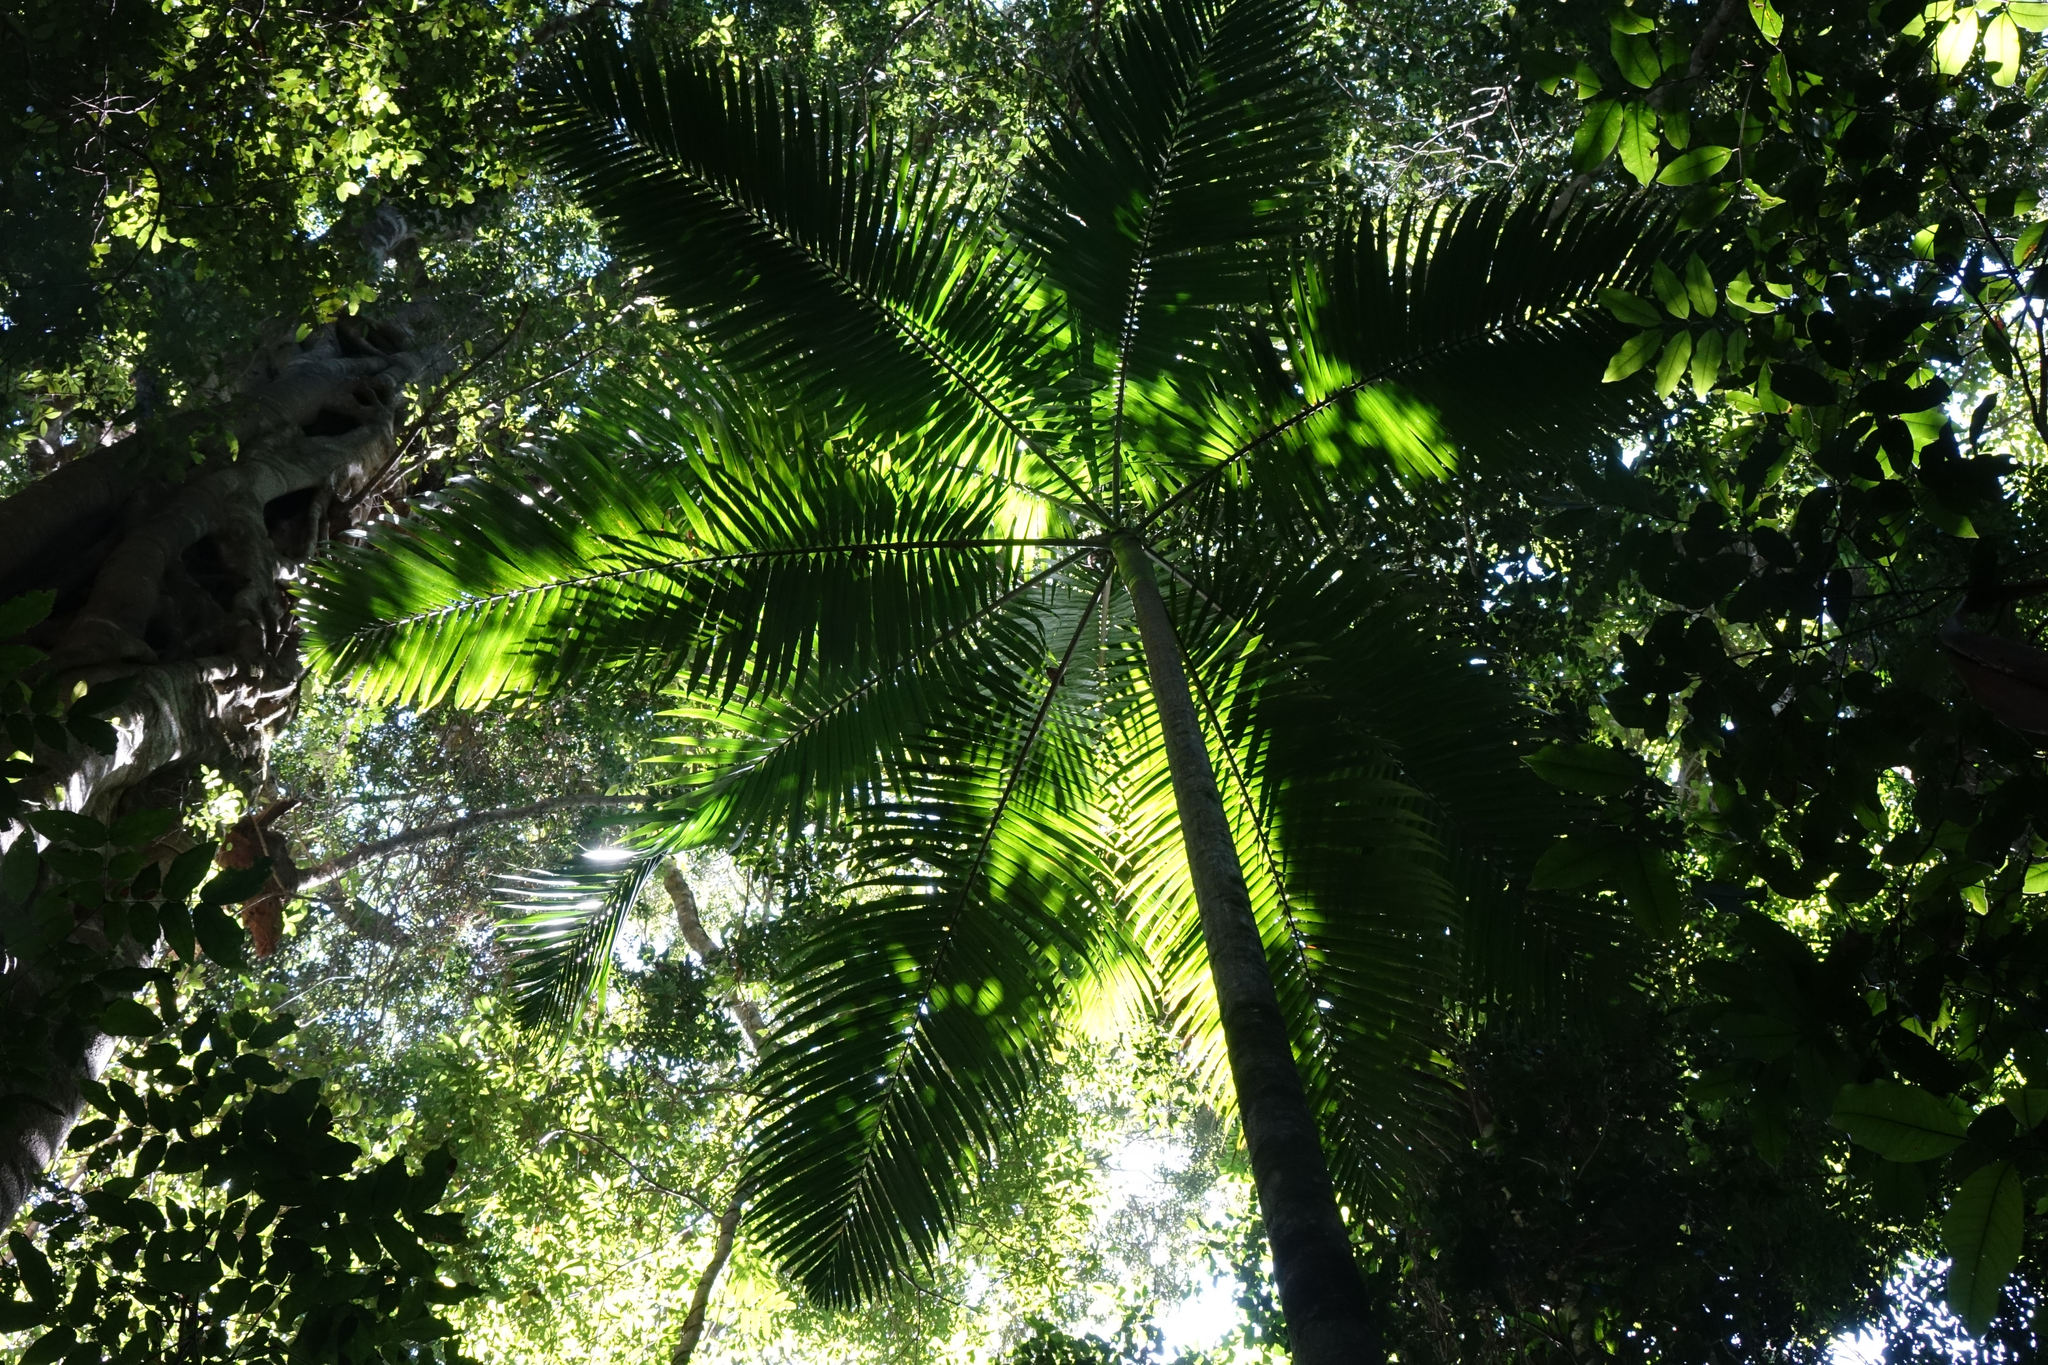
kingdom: Plantae
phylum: Tracheophyta
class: Liliopsida
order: Arecales
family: Arecaceae
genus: Archontophoenix
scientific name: Archontophoenix cunninghamiana
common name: Piccabeen bangalow palm
